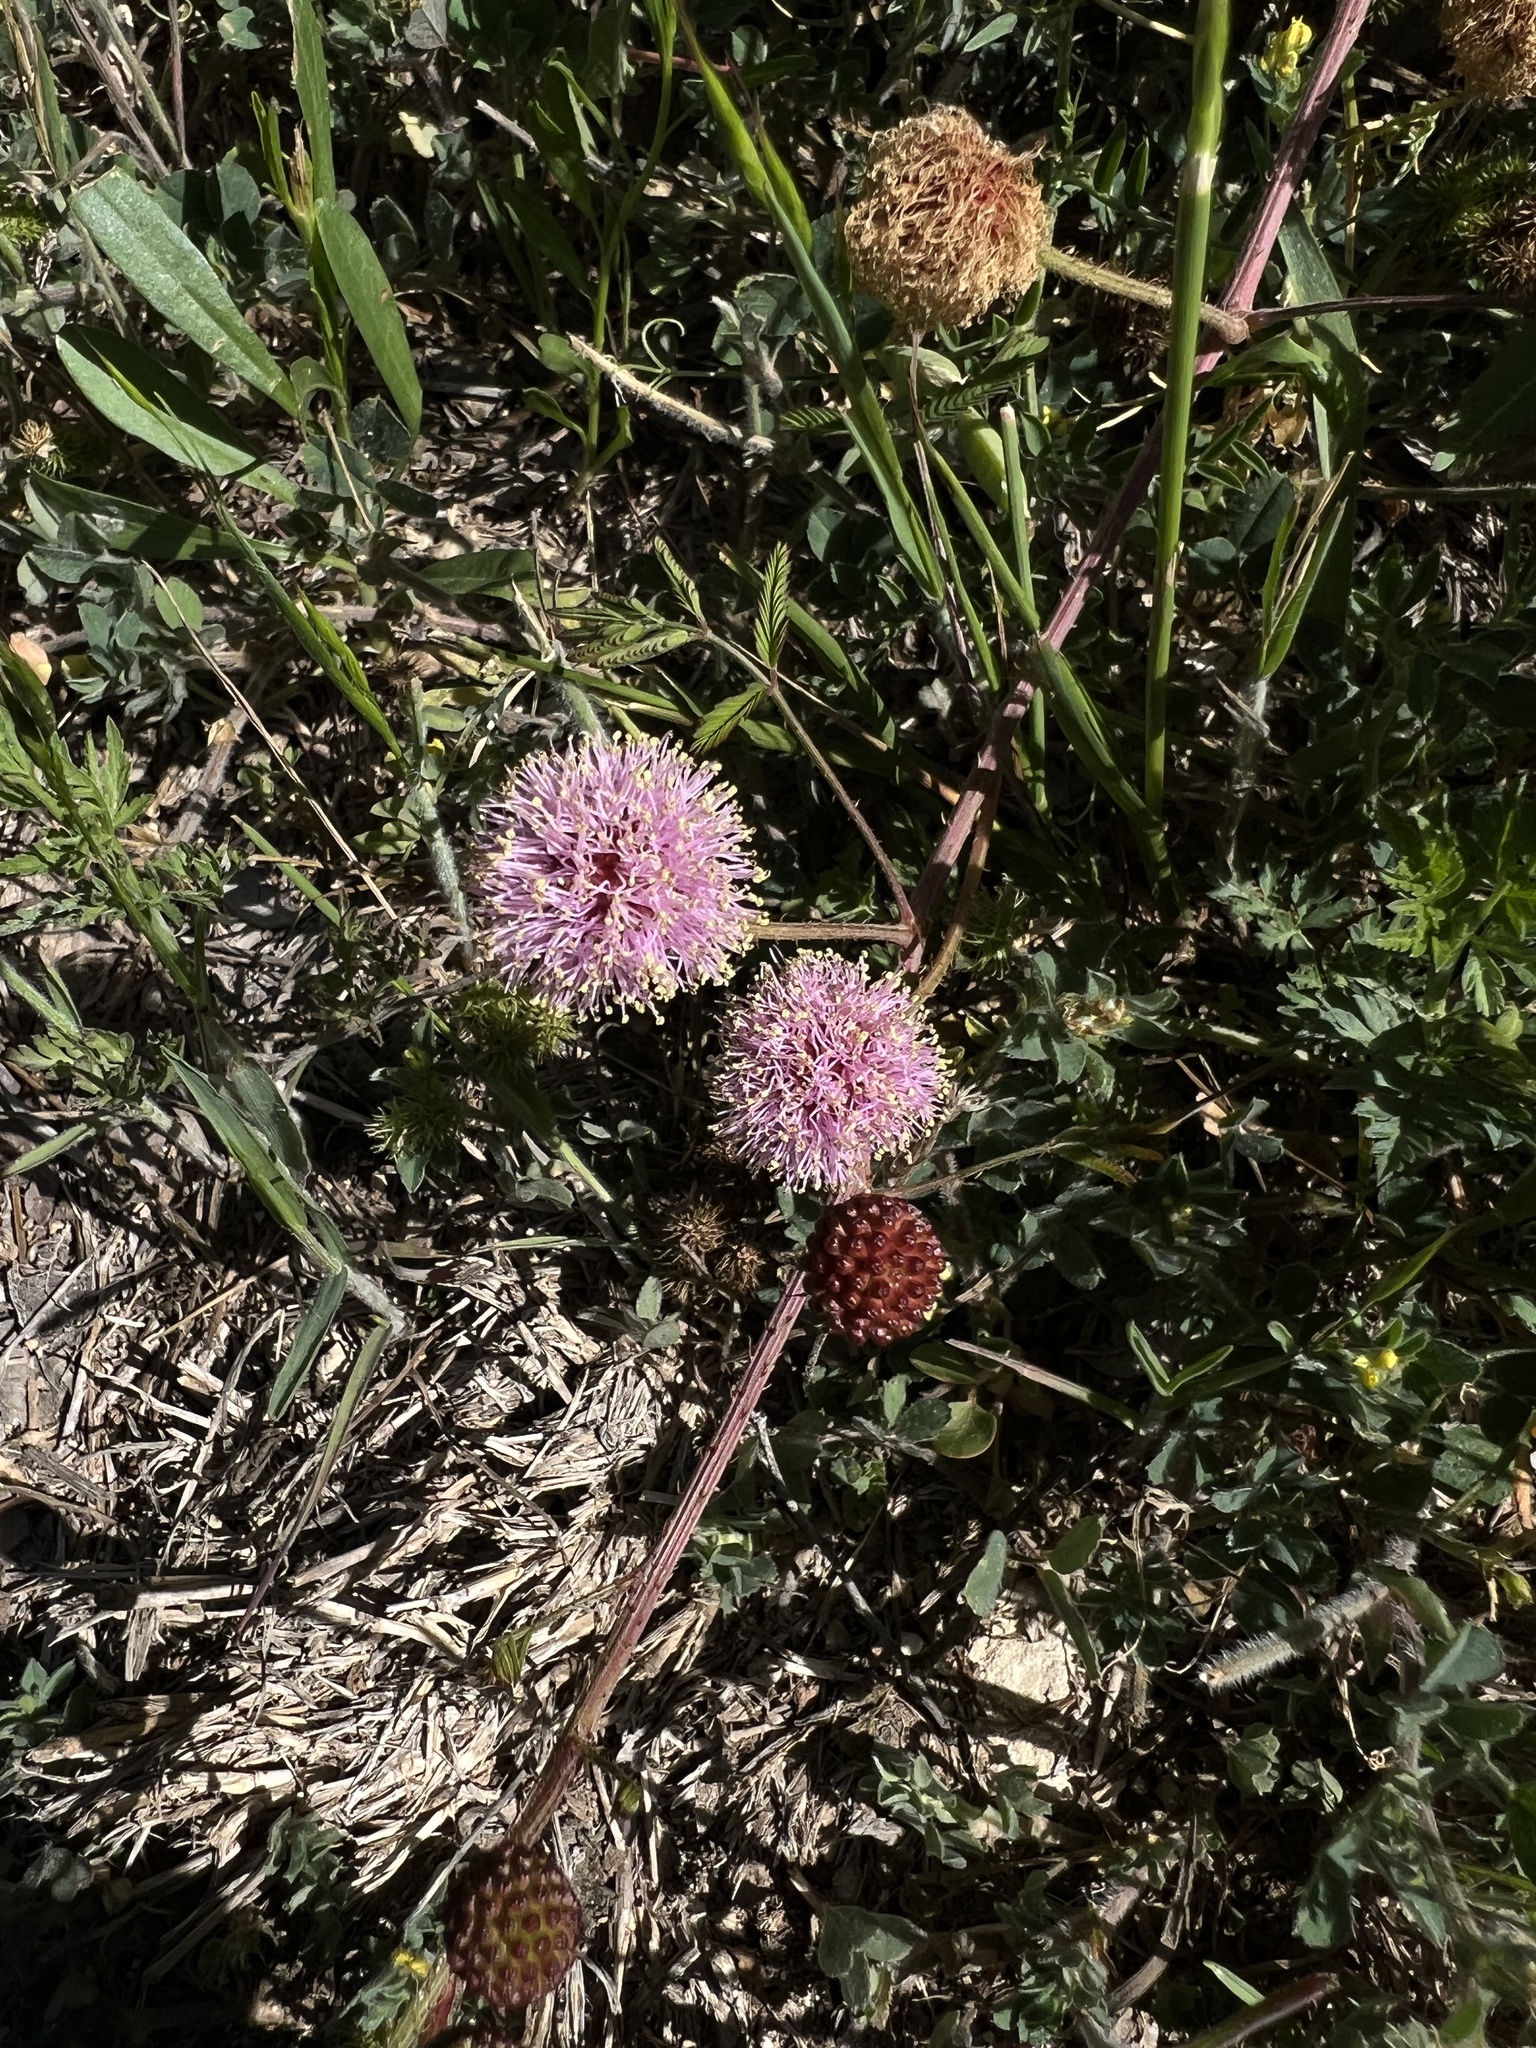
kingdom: Plantae
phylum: Tracheophyta
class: Magnoliopsida
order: Fabales
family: Fabaceae
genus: Mimosa
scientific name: Mimosa quadrivalvis
